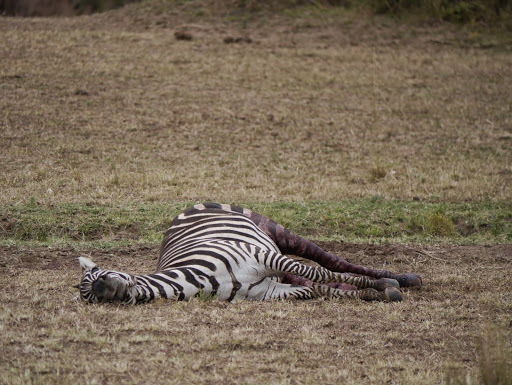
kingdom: Animalia
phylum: Chordata
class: Mammalia
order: Perissodactyla
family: Equidae
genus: Equus
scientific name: Equus quagga
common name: Plains zebra
